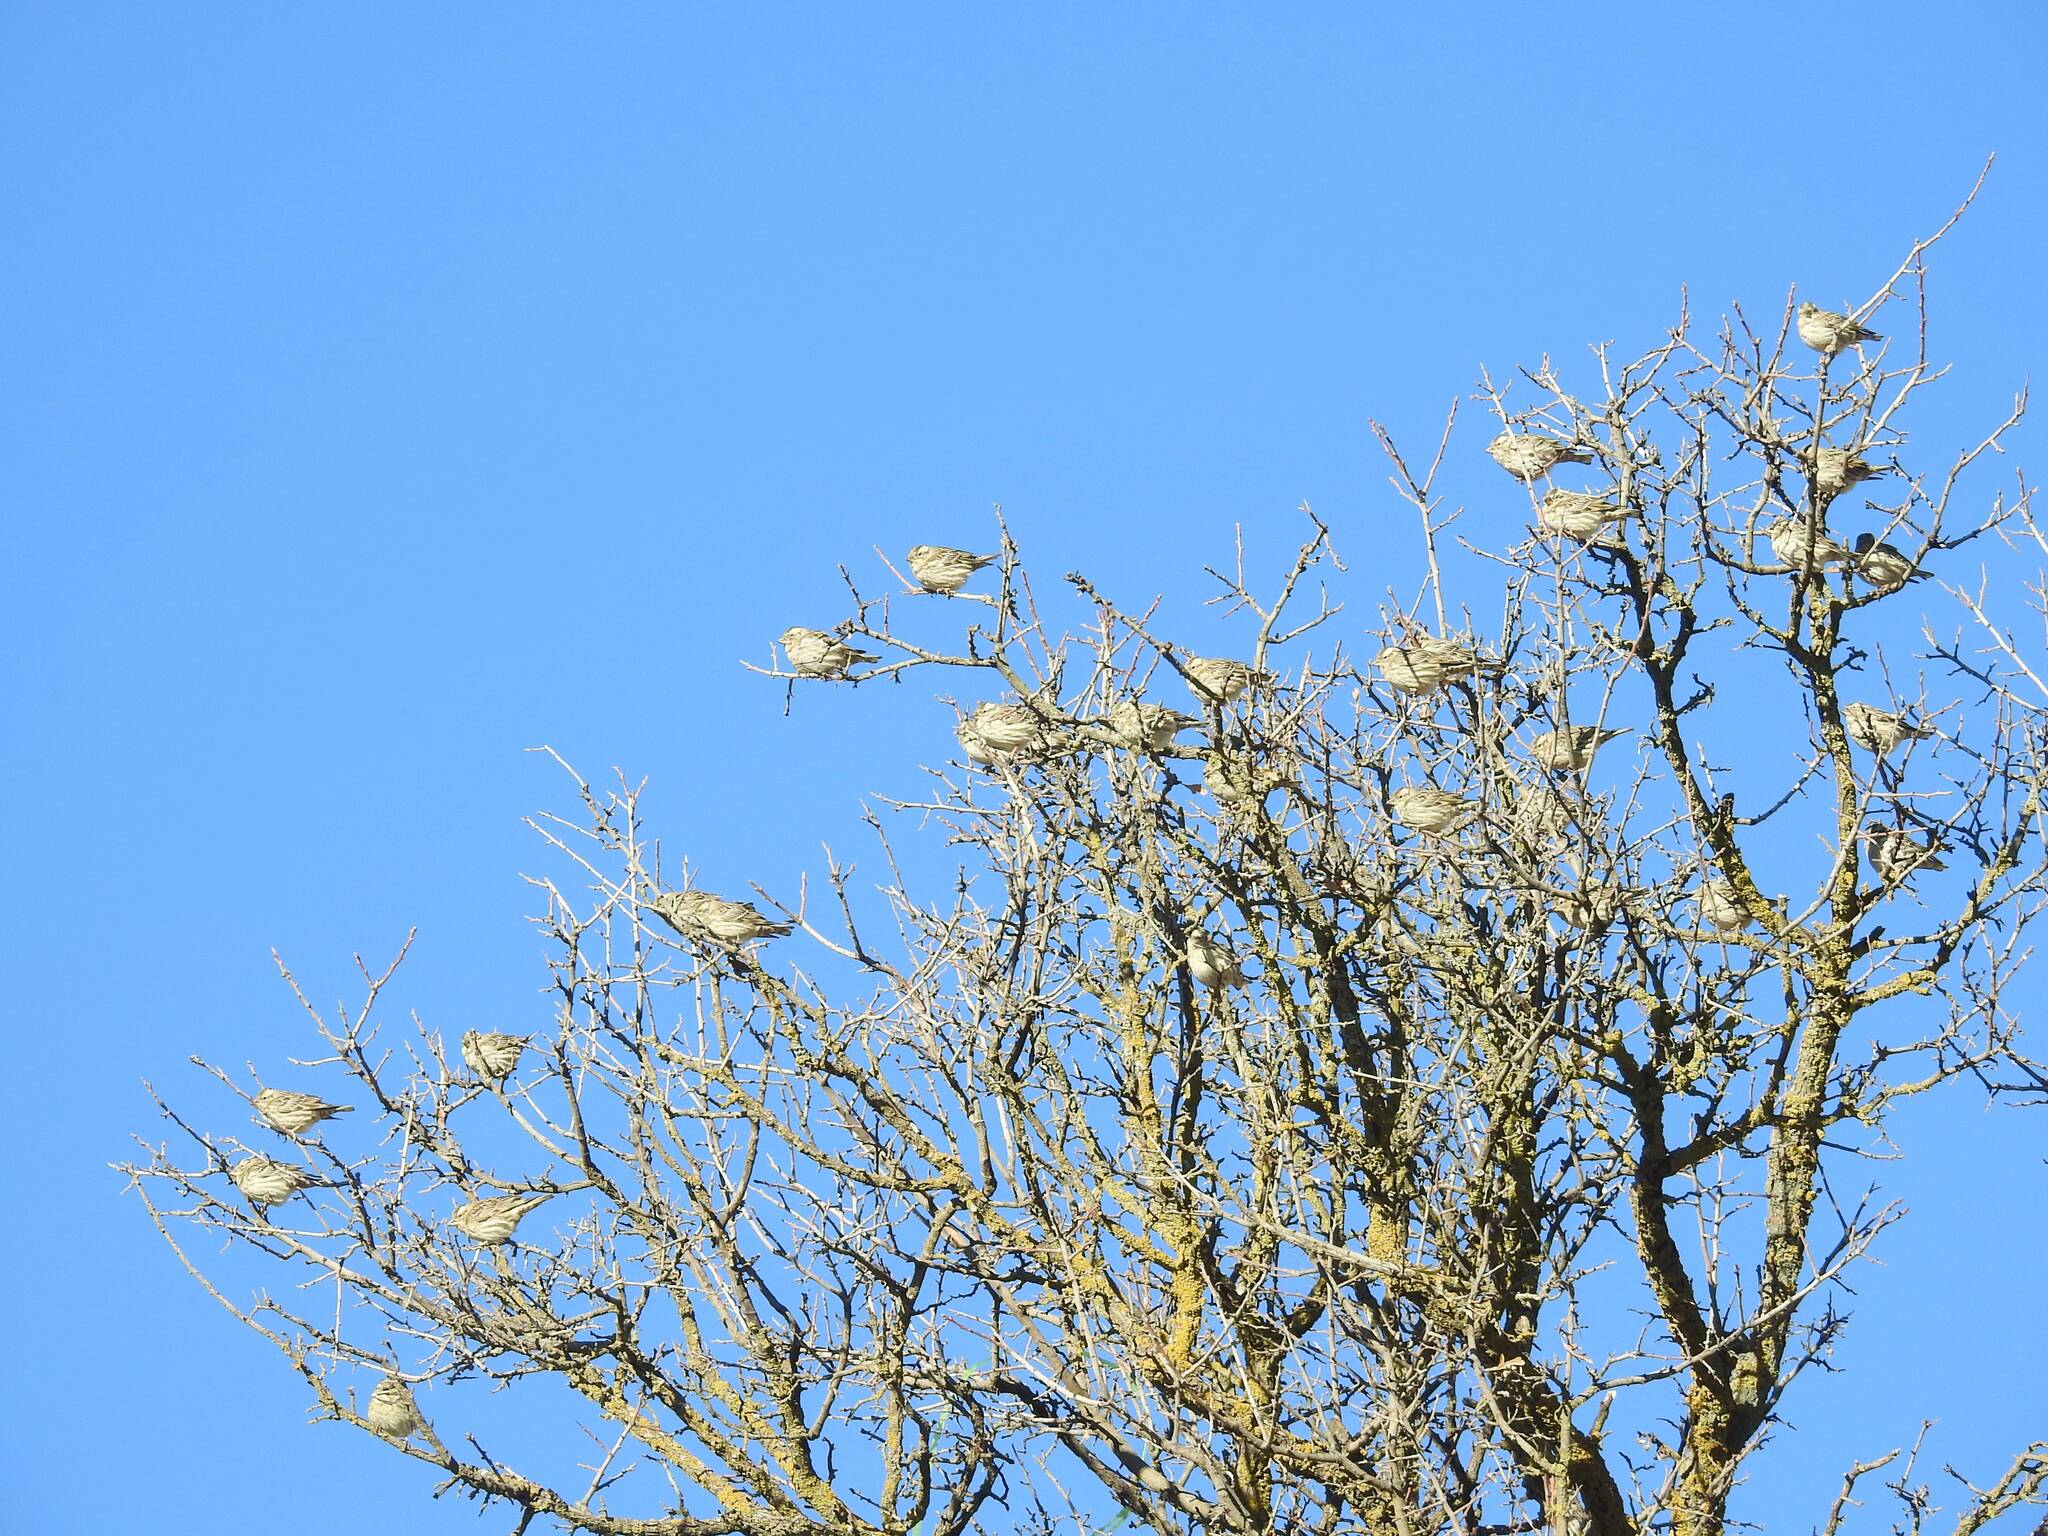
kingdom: Animalia
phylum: Chordata
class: Aves
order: Passeriformes
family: Passeridae
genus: Petronia
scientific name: Petronia petronia
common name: Rock sparrow
